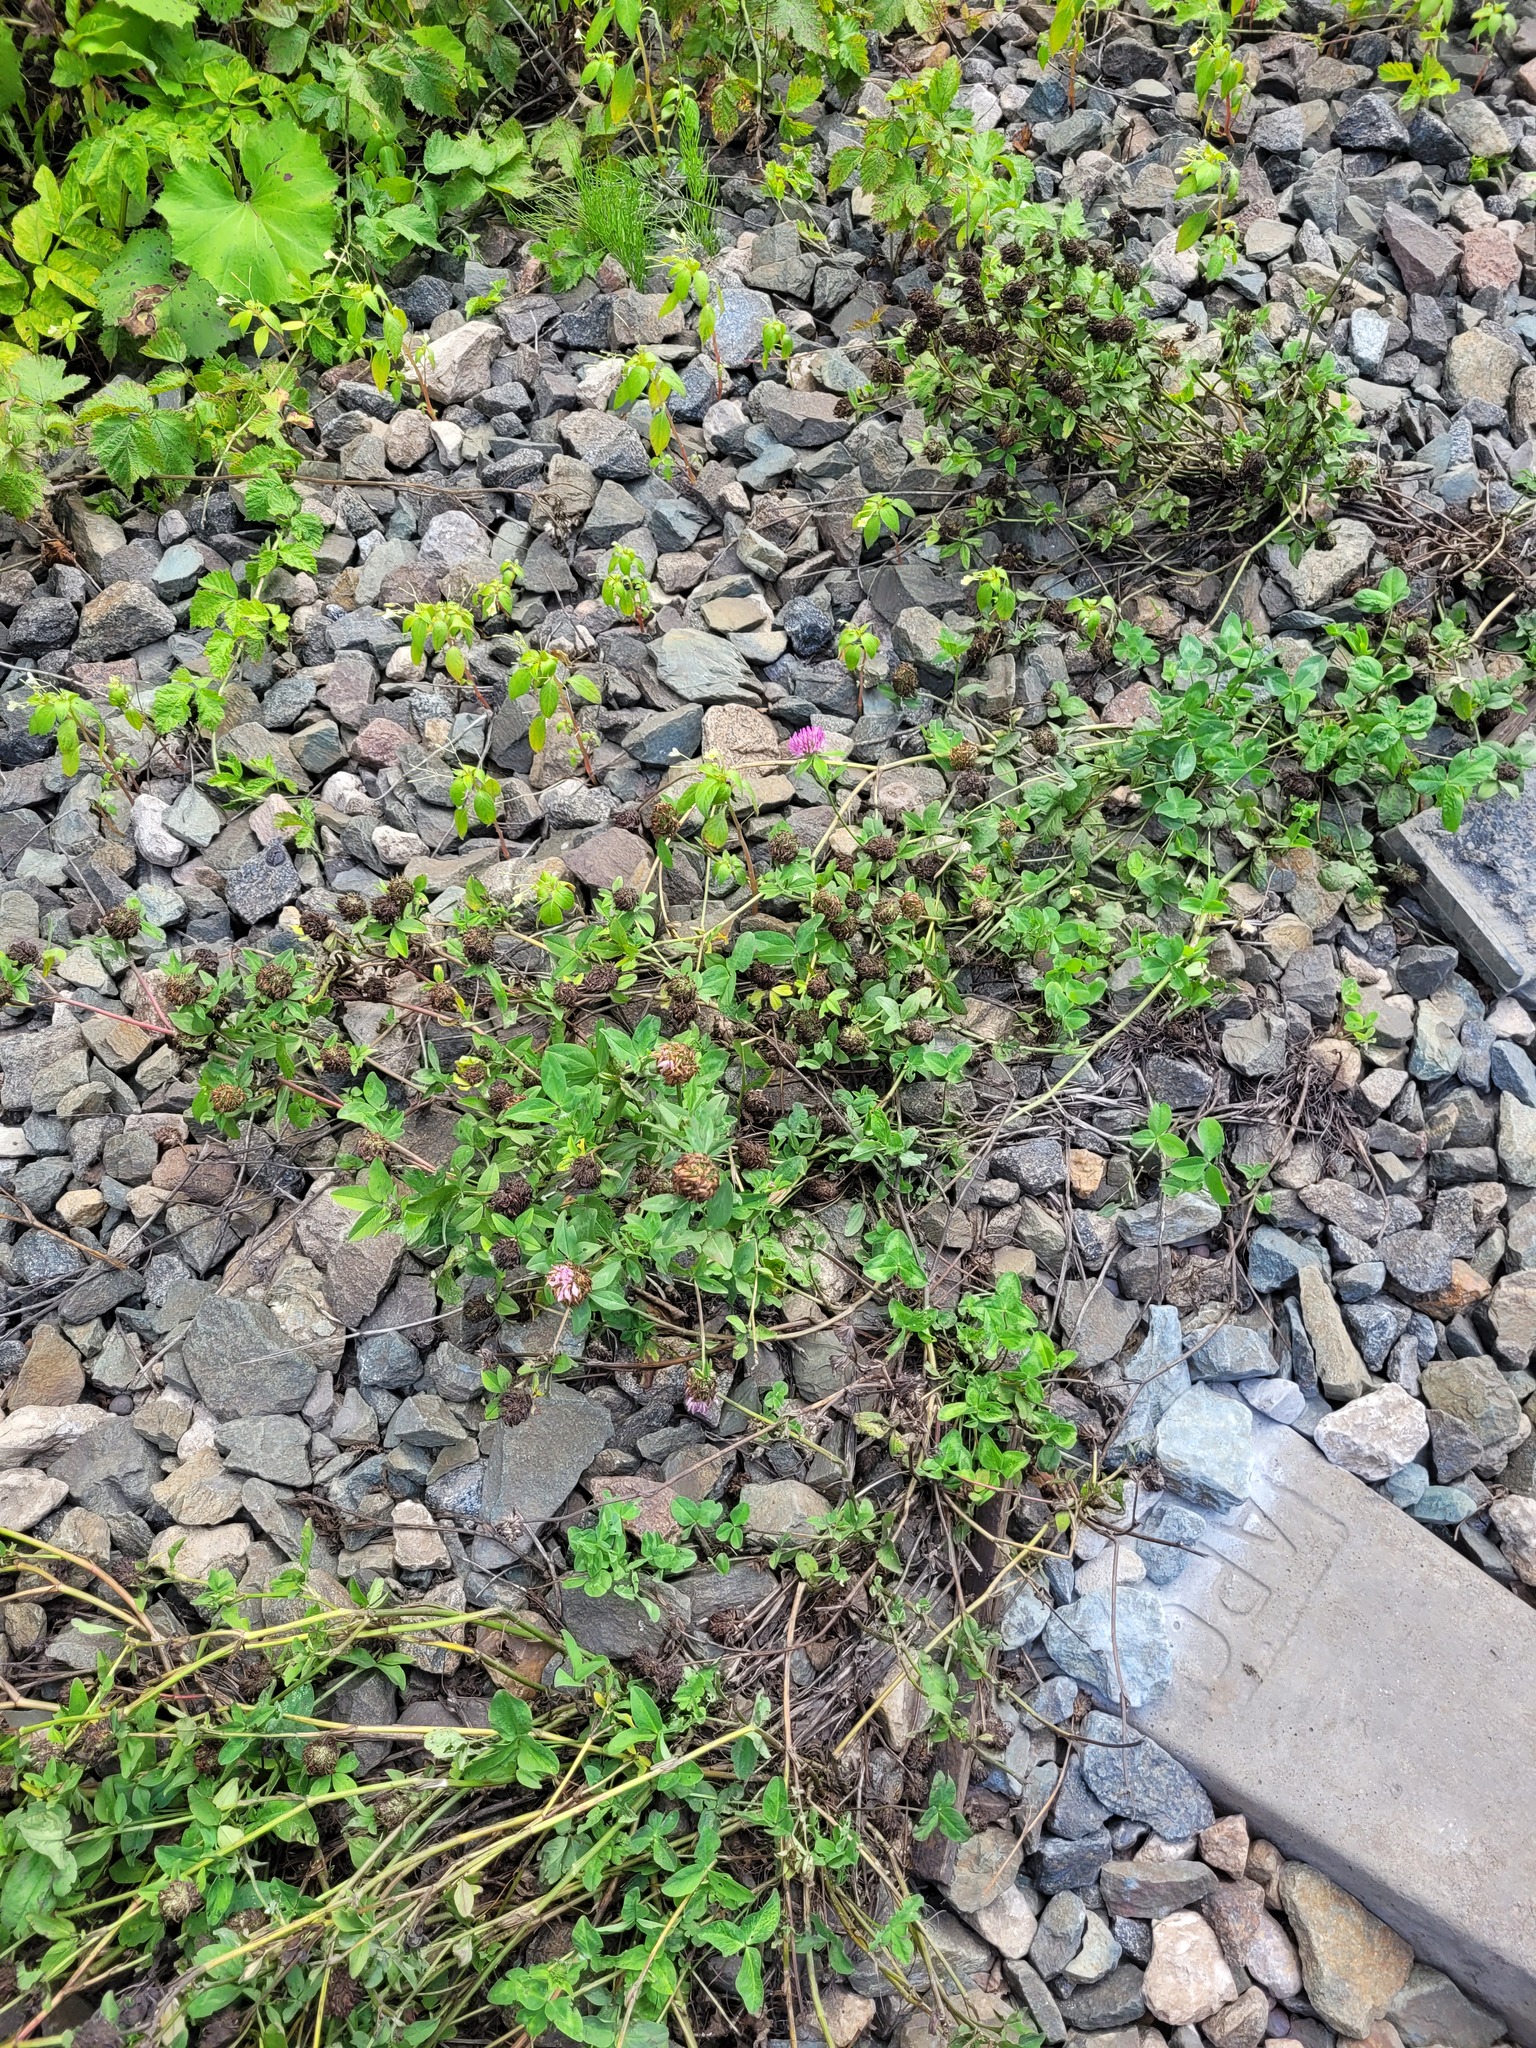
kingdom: Plantae
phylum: Tracheophyta
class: Magnoliopsida
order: Fabales
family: Fabaceae
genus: Trifolium
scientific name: Trifolium pratense
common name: Red clover
